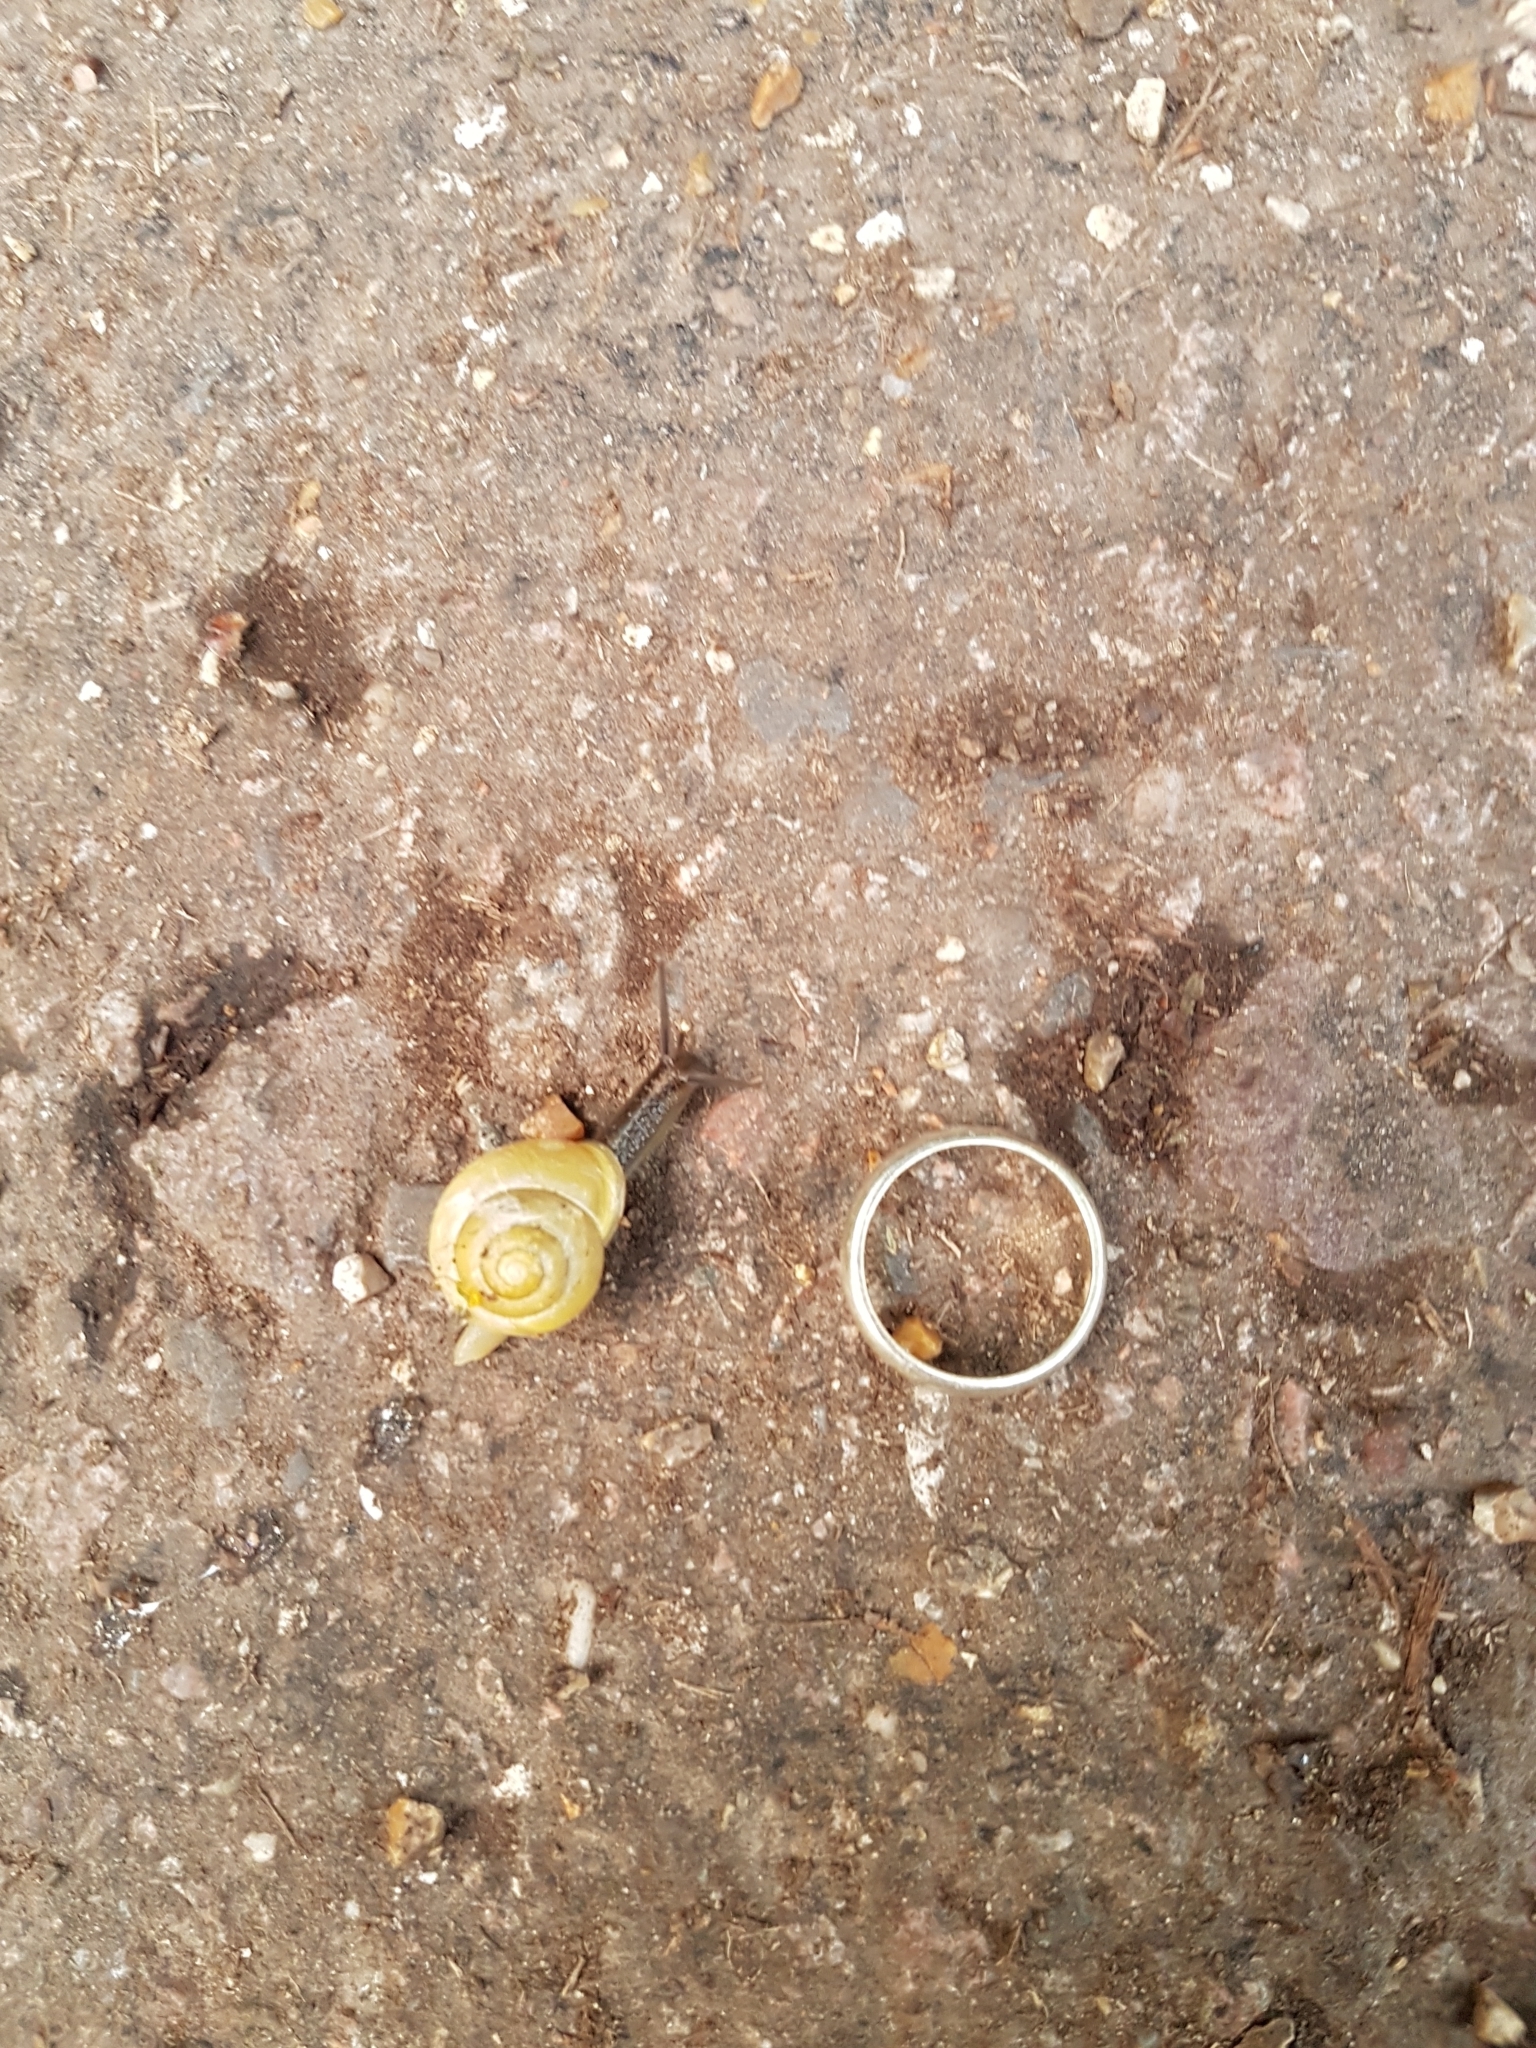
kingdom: Animalia
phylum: Mollusca
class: Gastropoda
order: Stylommatophora
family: Helicidae
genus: Cepaea
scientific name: Cepaea hortensis
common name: White-lip gardensnail
